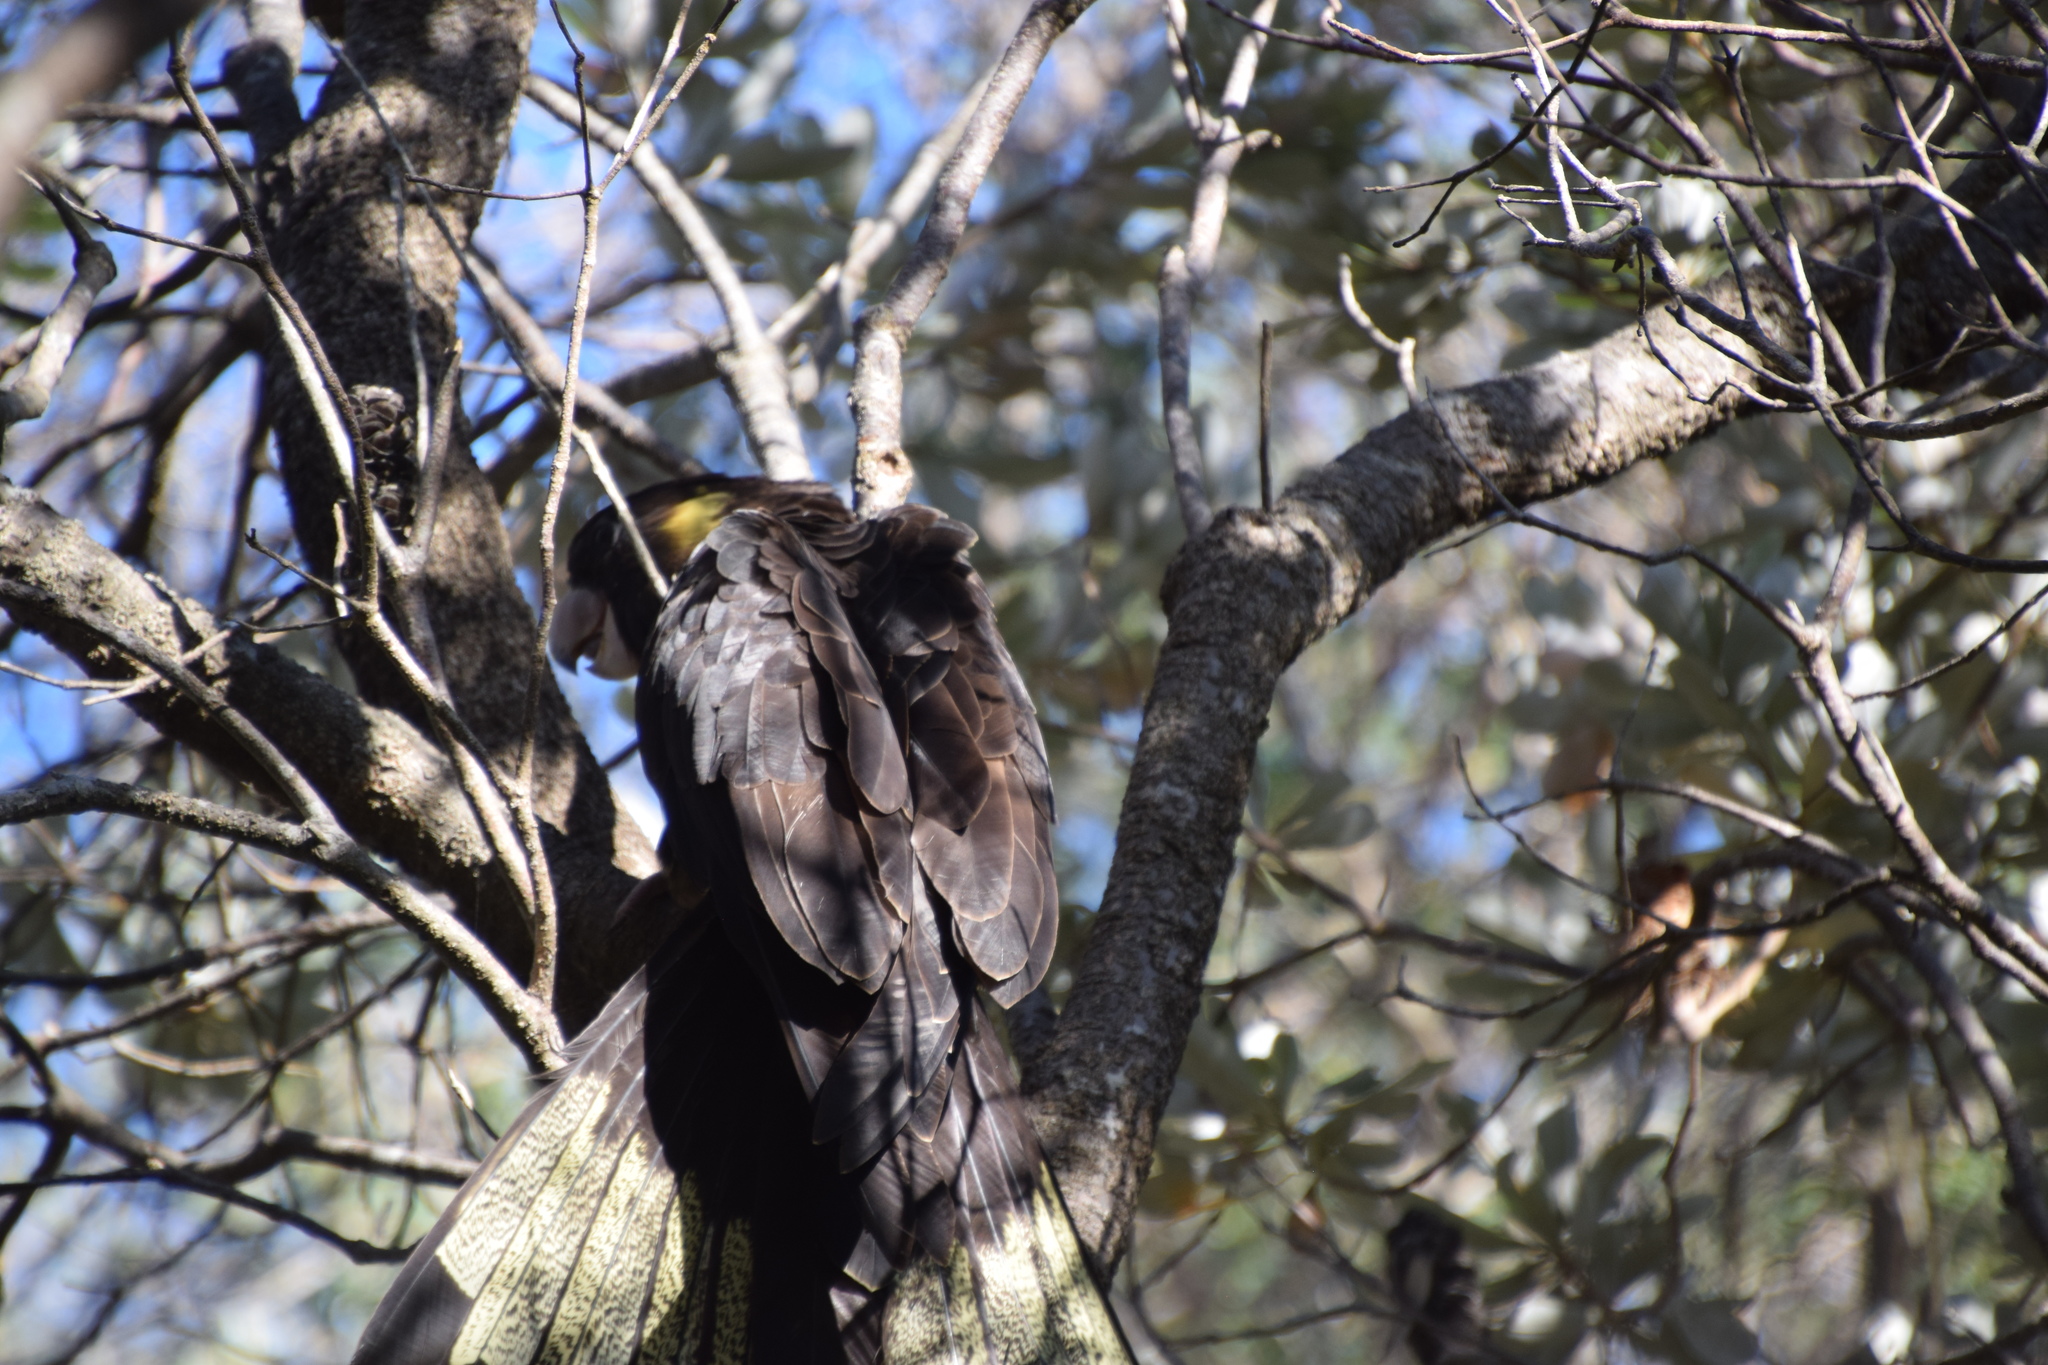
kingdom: Animalia
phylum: Chordata
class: Aves
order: Psittaciformes
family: Cacatuidae
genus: Zanda
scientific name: Zanda funerea
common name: Yellow-tailed black-cockatoo
